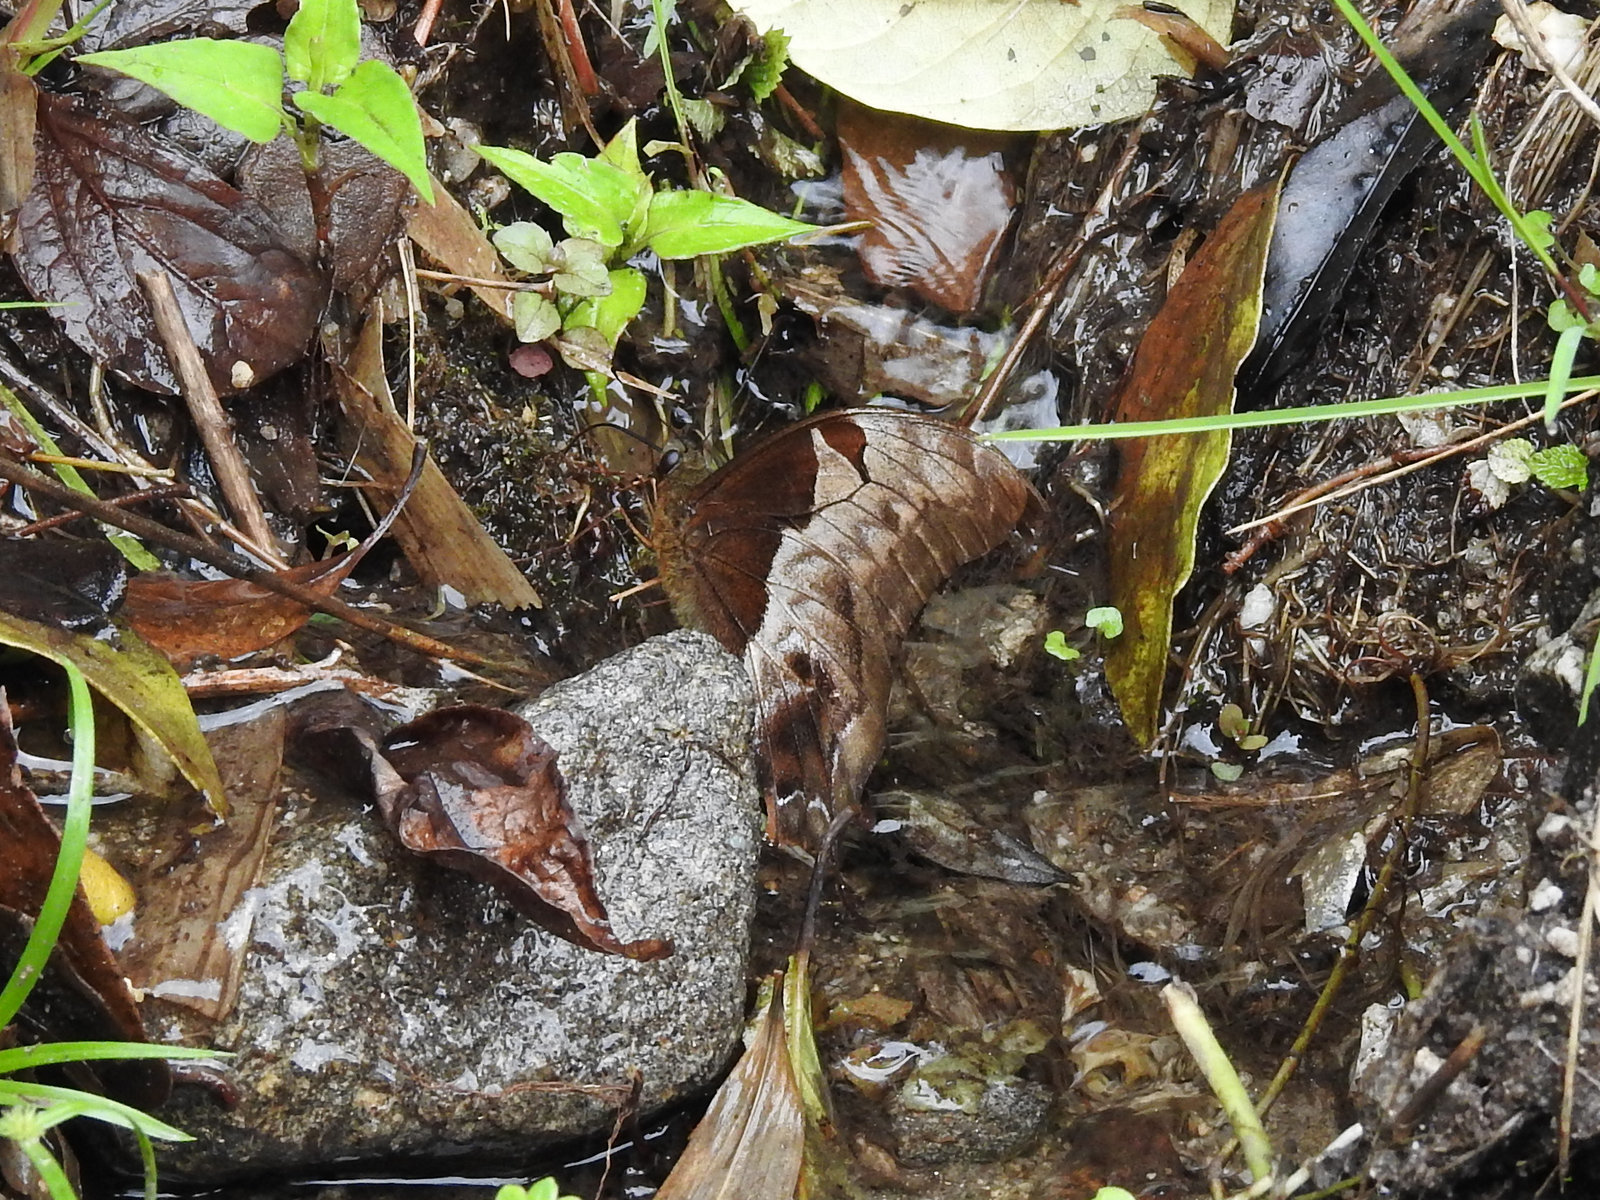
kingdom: Animalia
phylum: Arthropoda
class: Insecta
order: Lepidoptera
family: Papilionidae
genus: Meandrusa
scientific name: Meandrusa lachinus
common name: Brown gorgon
